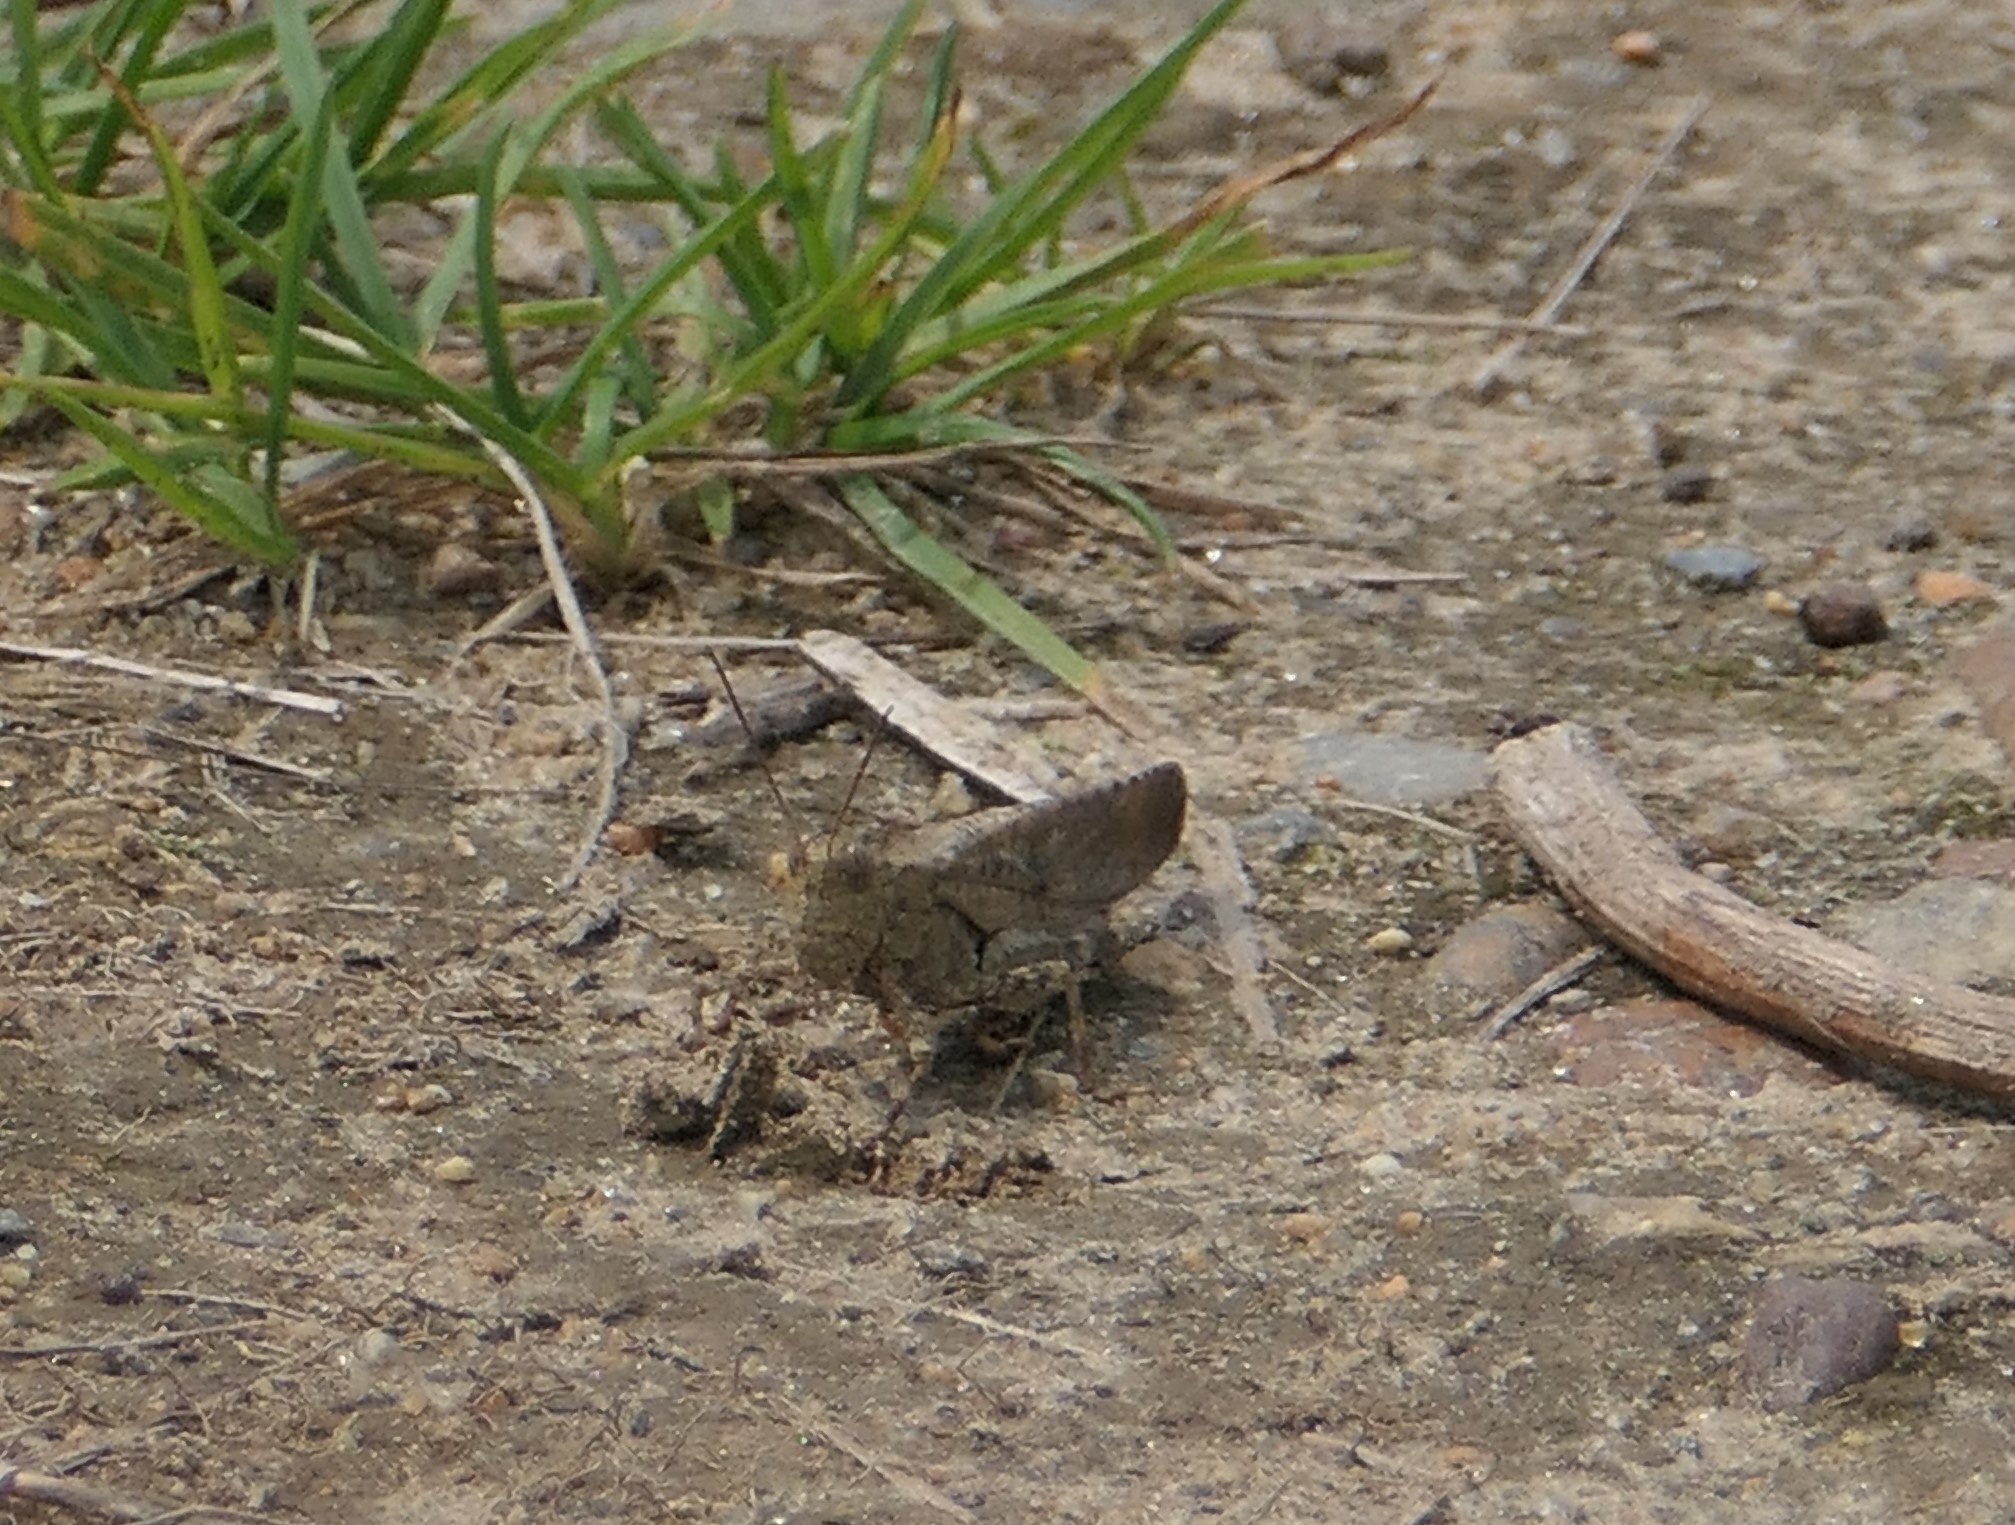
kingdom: Animalia
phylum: Arthropoda
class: Insecta
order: Orthoptera
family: Acrididae
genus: Dissosteira
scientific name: Dissosteira carolina
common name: Carolina grasshopper
